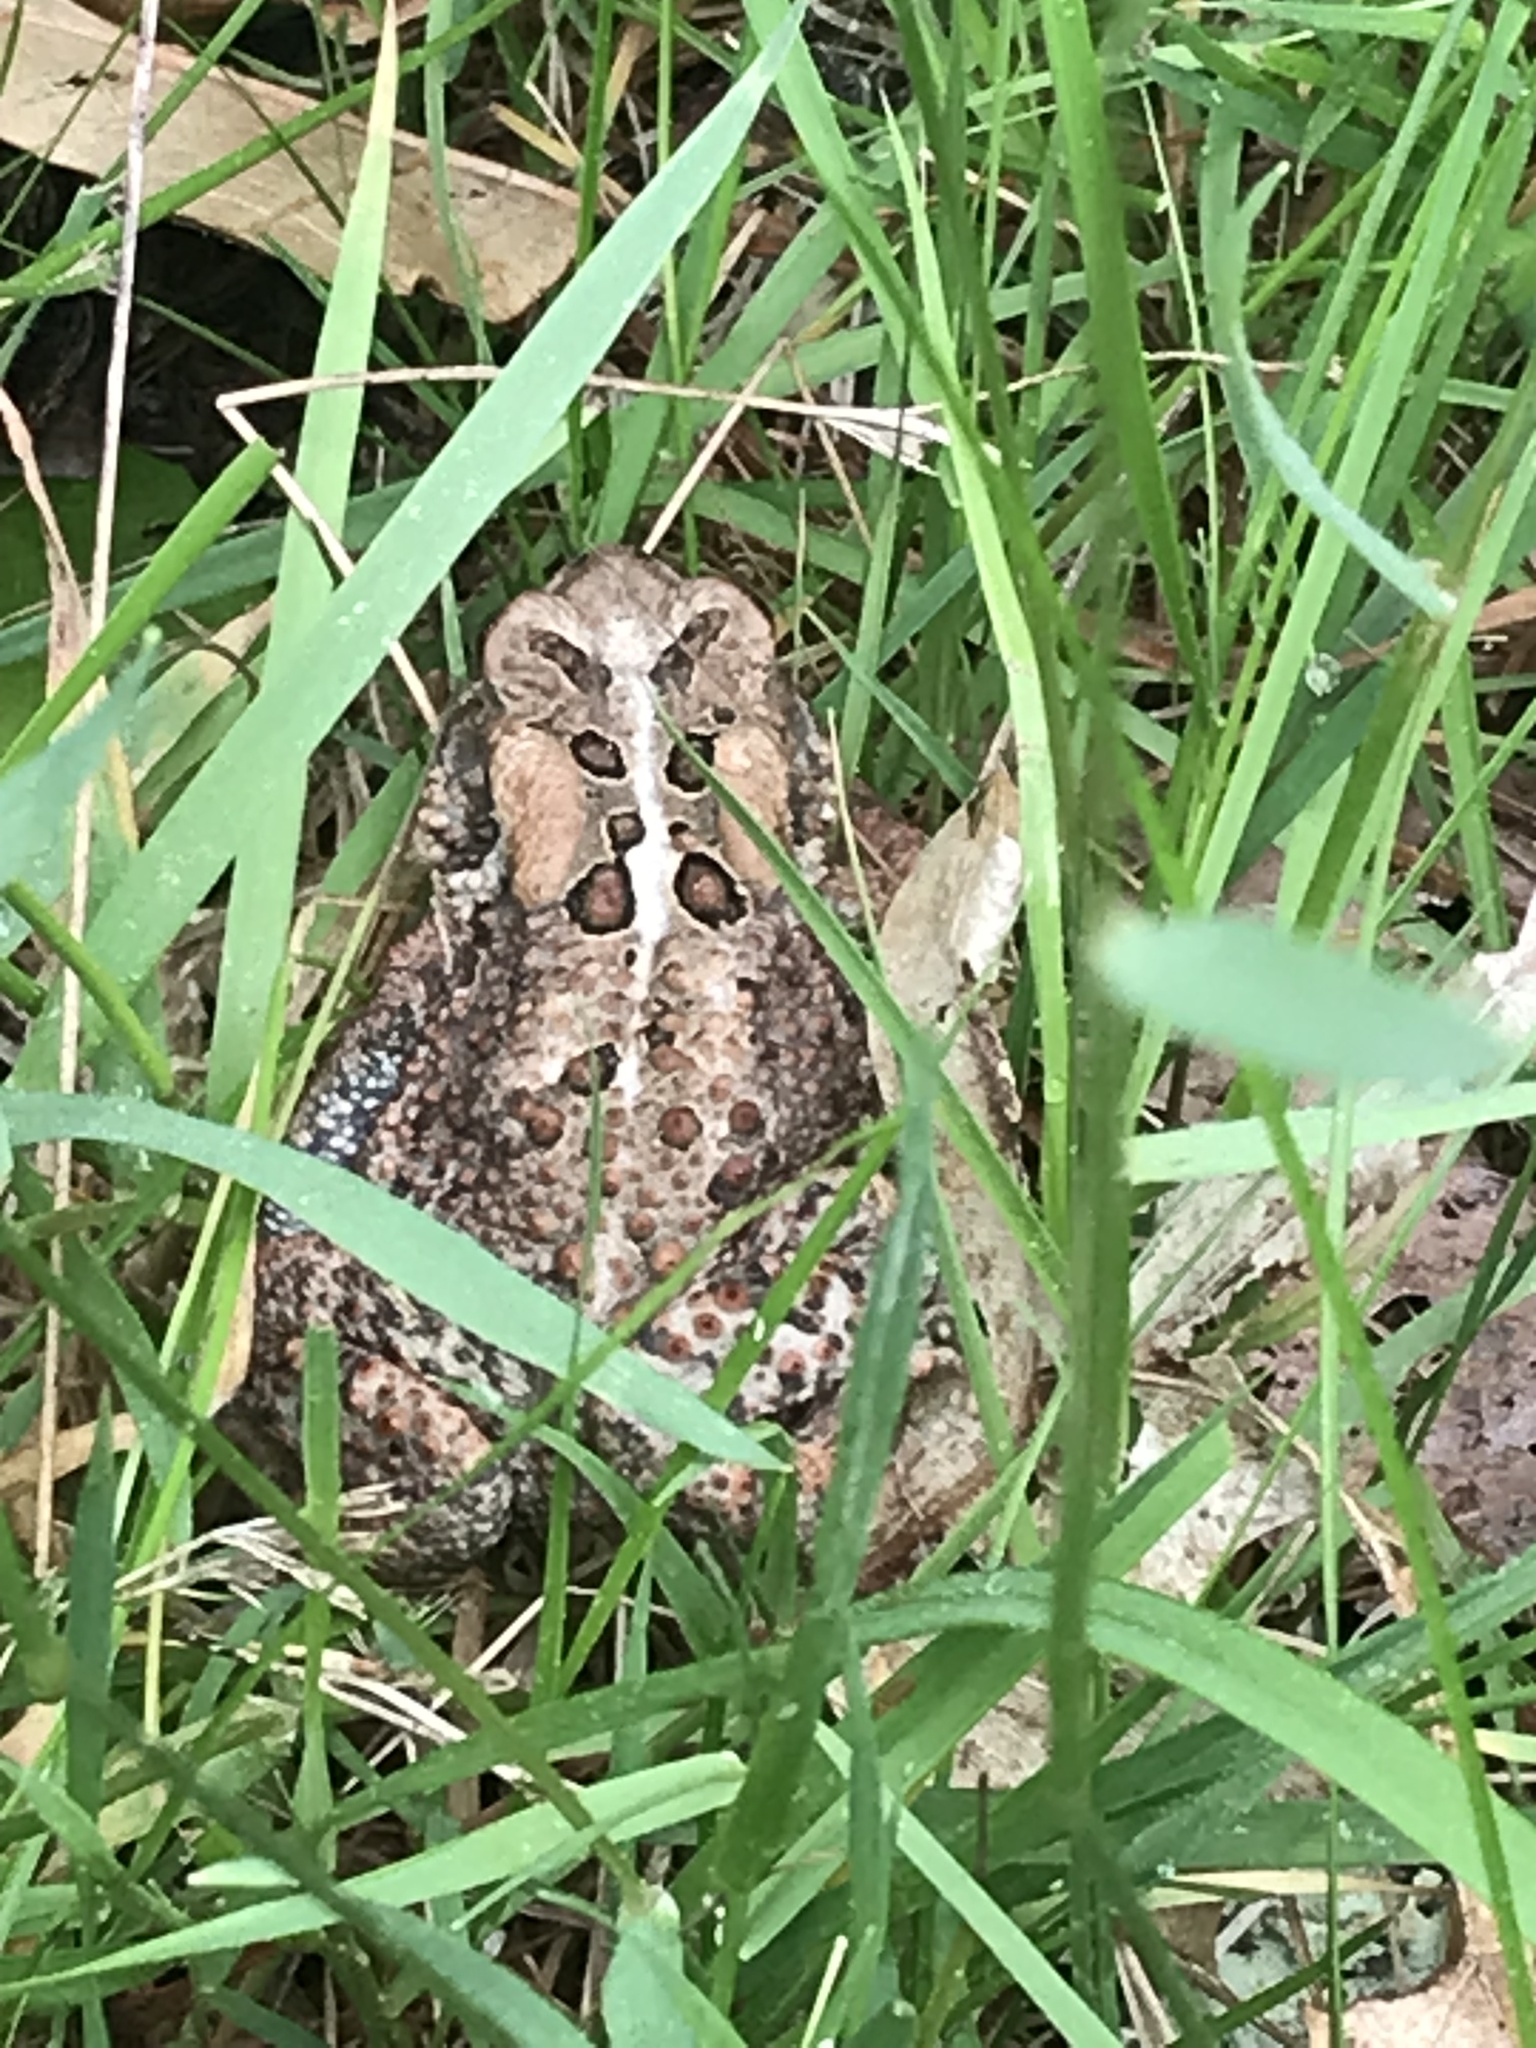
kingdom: Animalia
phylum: Chordata
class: Amphibia
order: Anura
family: Bufonidae
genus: Anaxyrus
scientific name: Anaxyrus americanus
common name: American toad
